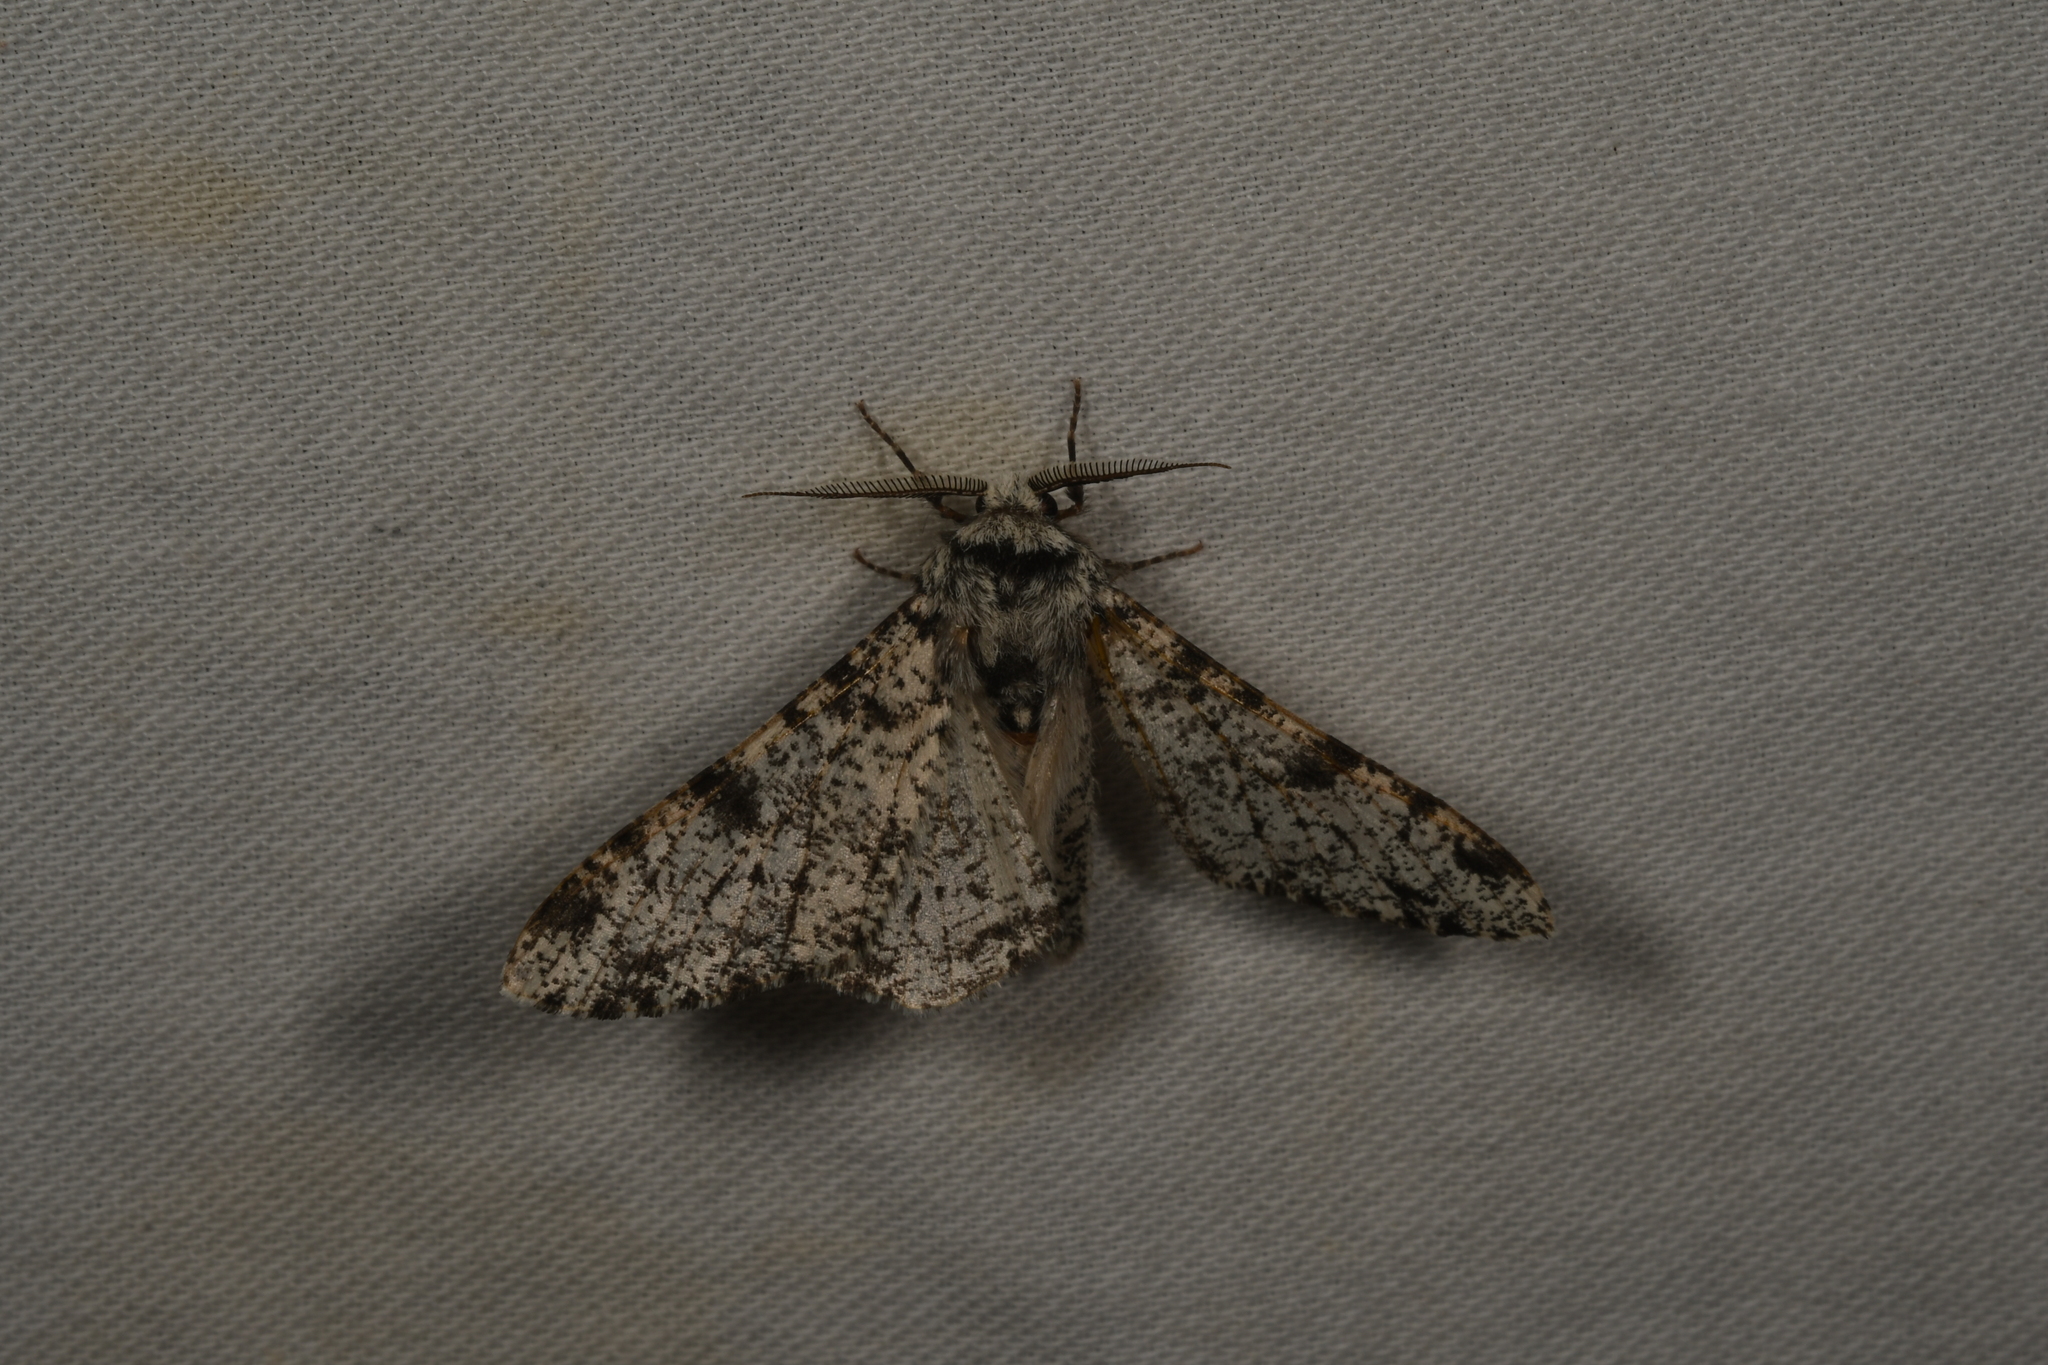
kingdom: Animalia
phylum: Arthropoda
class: Insecta
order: Lepidoptera
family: Geometridae
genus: Biston
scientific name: Biston betularia
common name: Peppered moth
